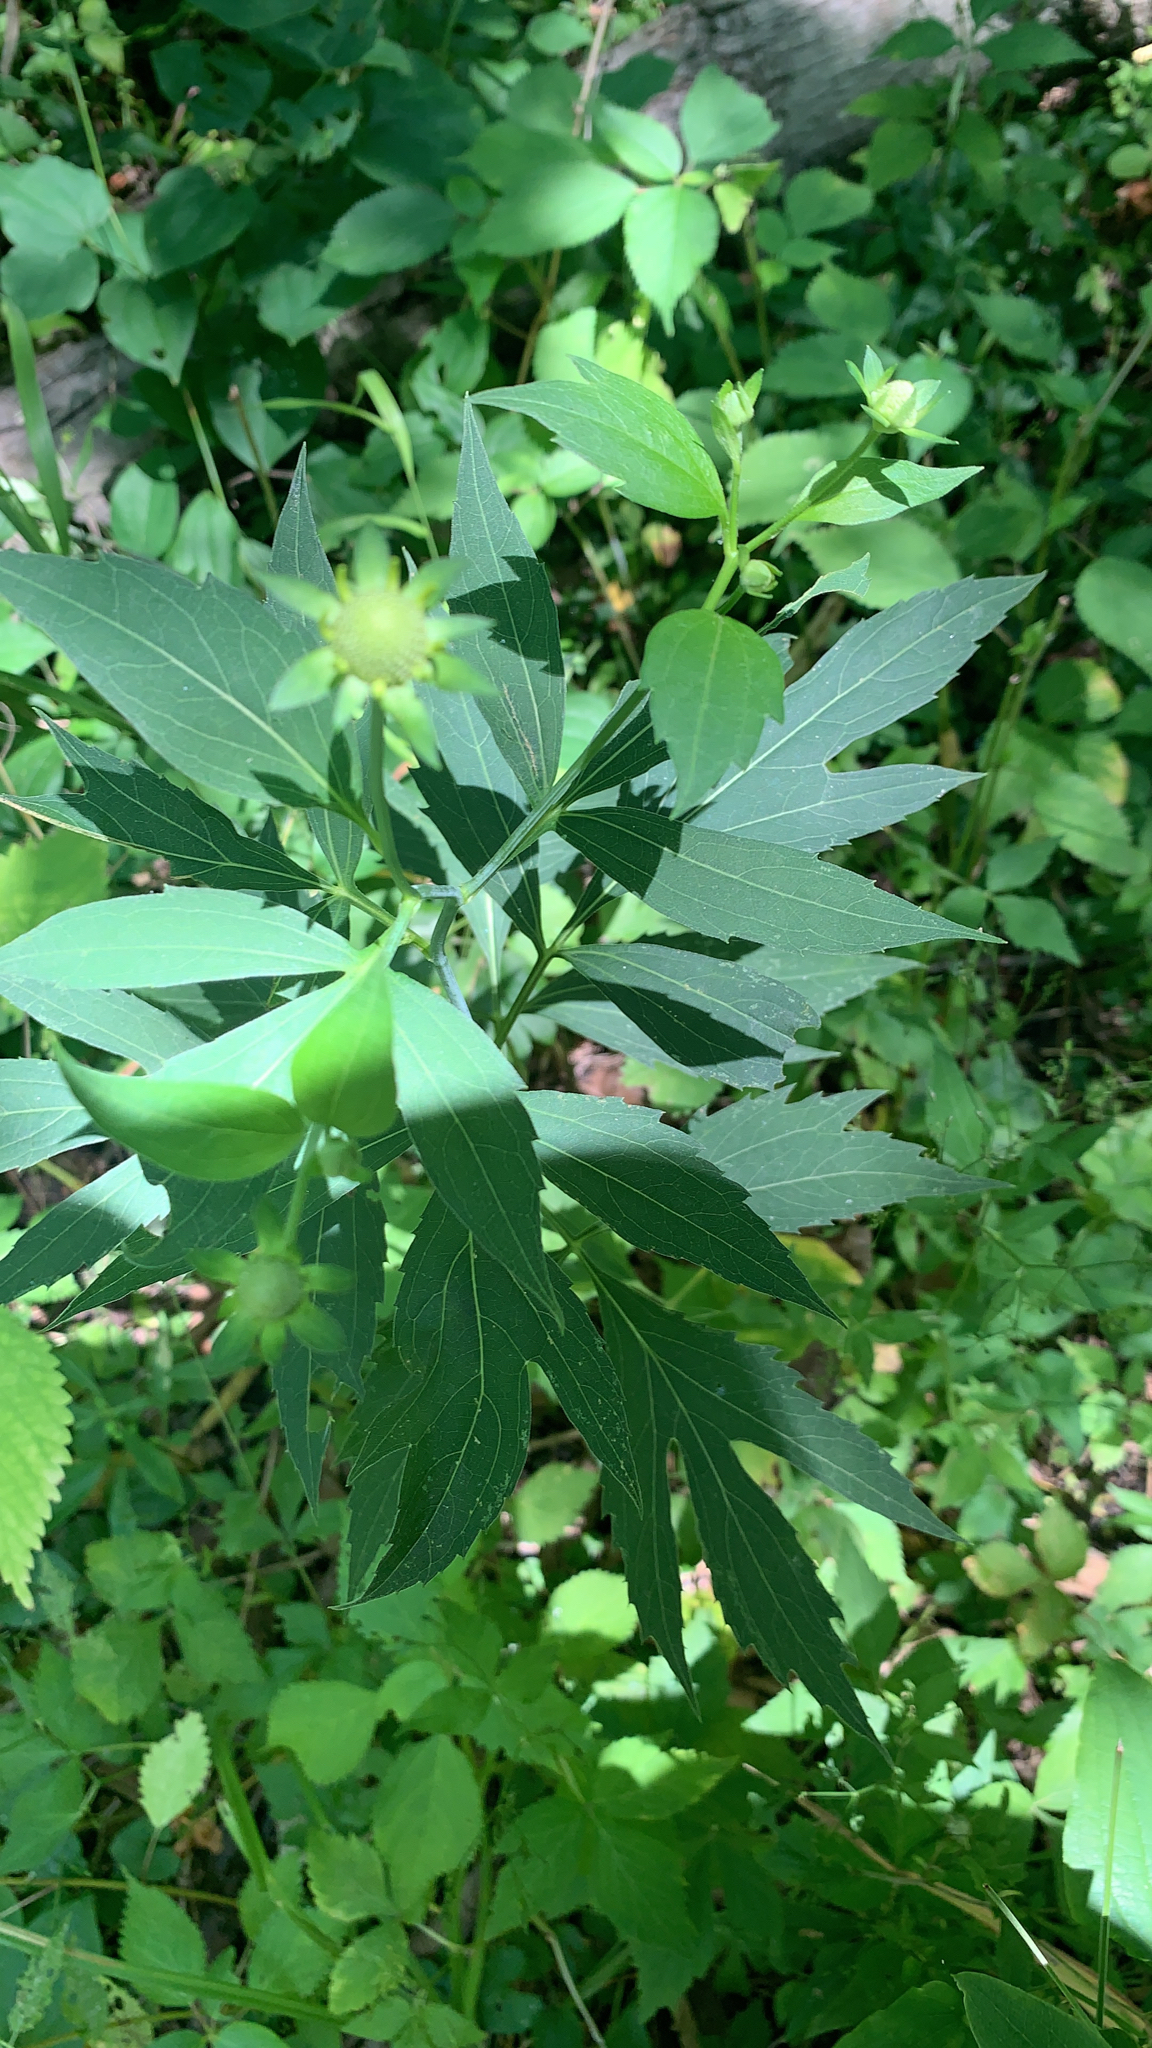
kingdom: Plantae
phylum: Tracheophyta
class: Magnoliopsida
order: Asterales
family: Asteraceae
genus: Rudbeckia
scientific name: Rudbeckia laciniata
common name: Coneflower
